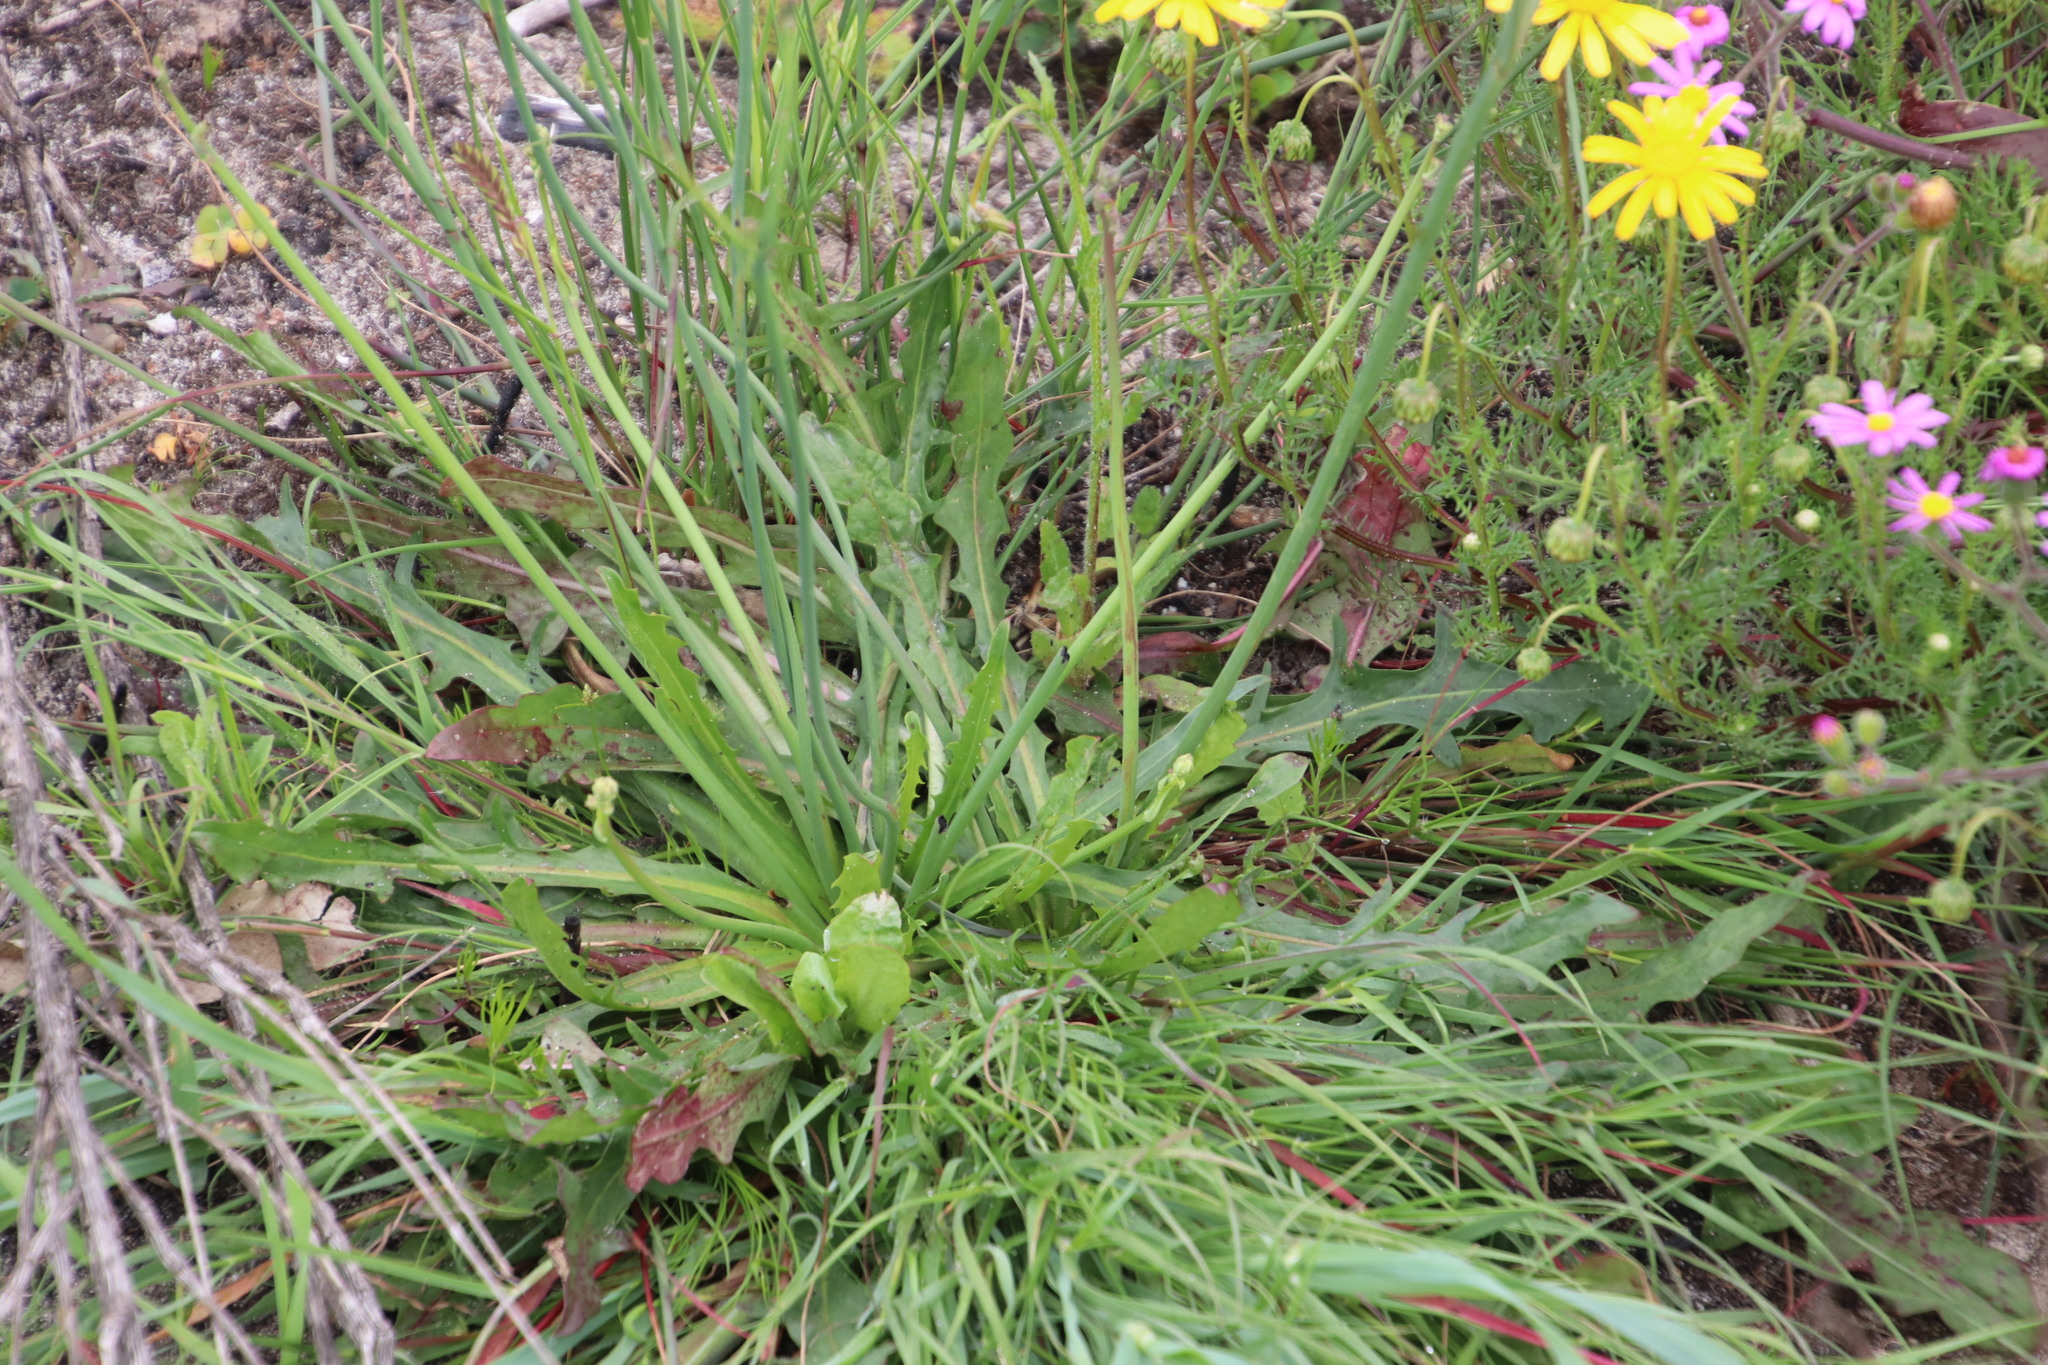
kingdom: Plantae
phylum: Tracheophyta
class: Magnoliopsida
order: Asterales
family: Asteraceae
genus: Hypochaeris
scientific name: Hypochaeris glabra
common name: Smooth catsear
